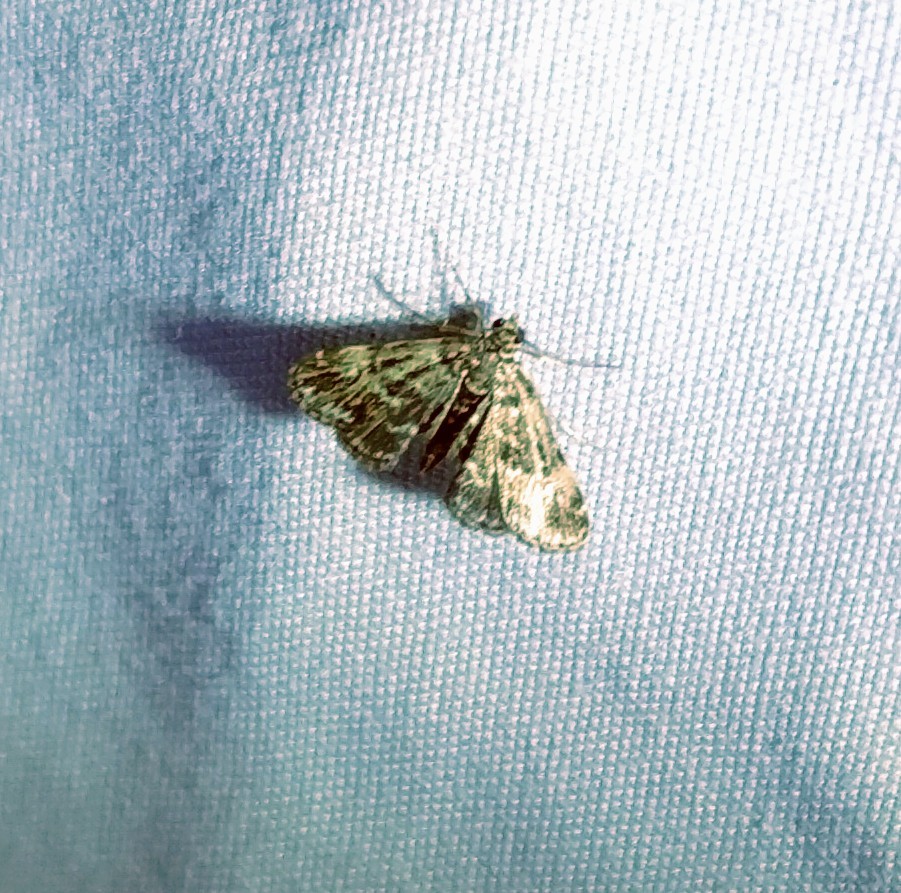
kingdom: Animalia
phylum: Arthropoda
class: Insecta
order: Lepidoptera
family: Crambidae
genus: Elophila
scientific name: Elophila obliteralis
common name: Waterlily leafcutter moth
